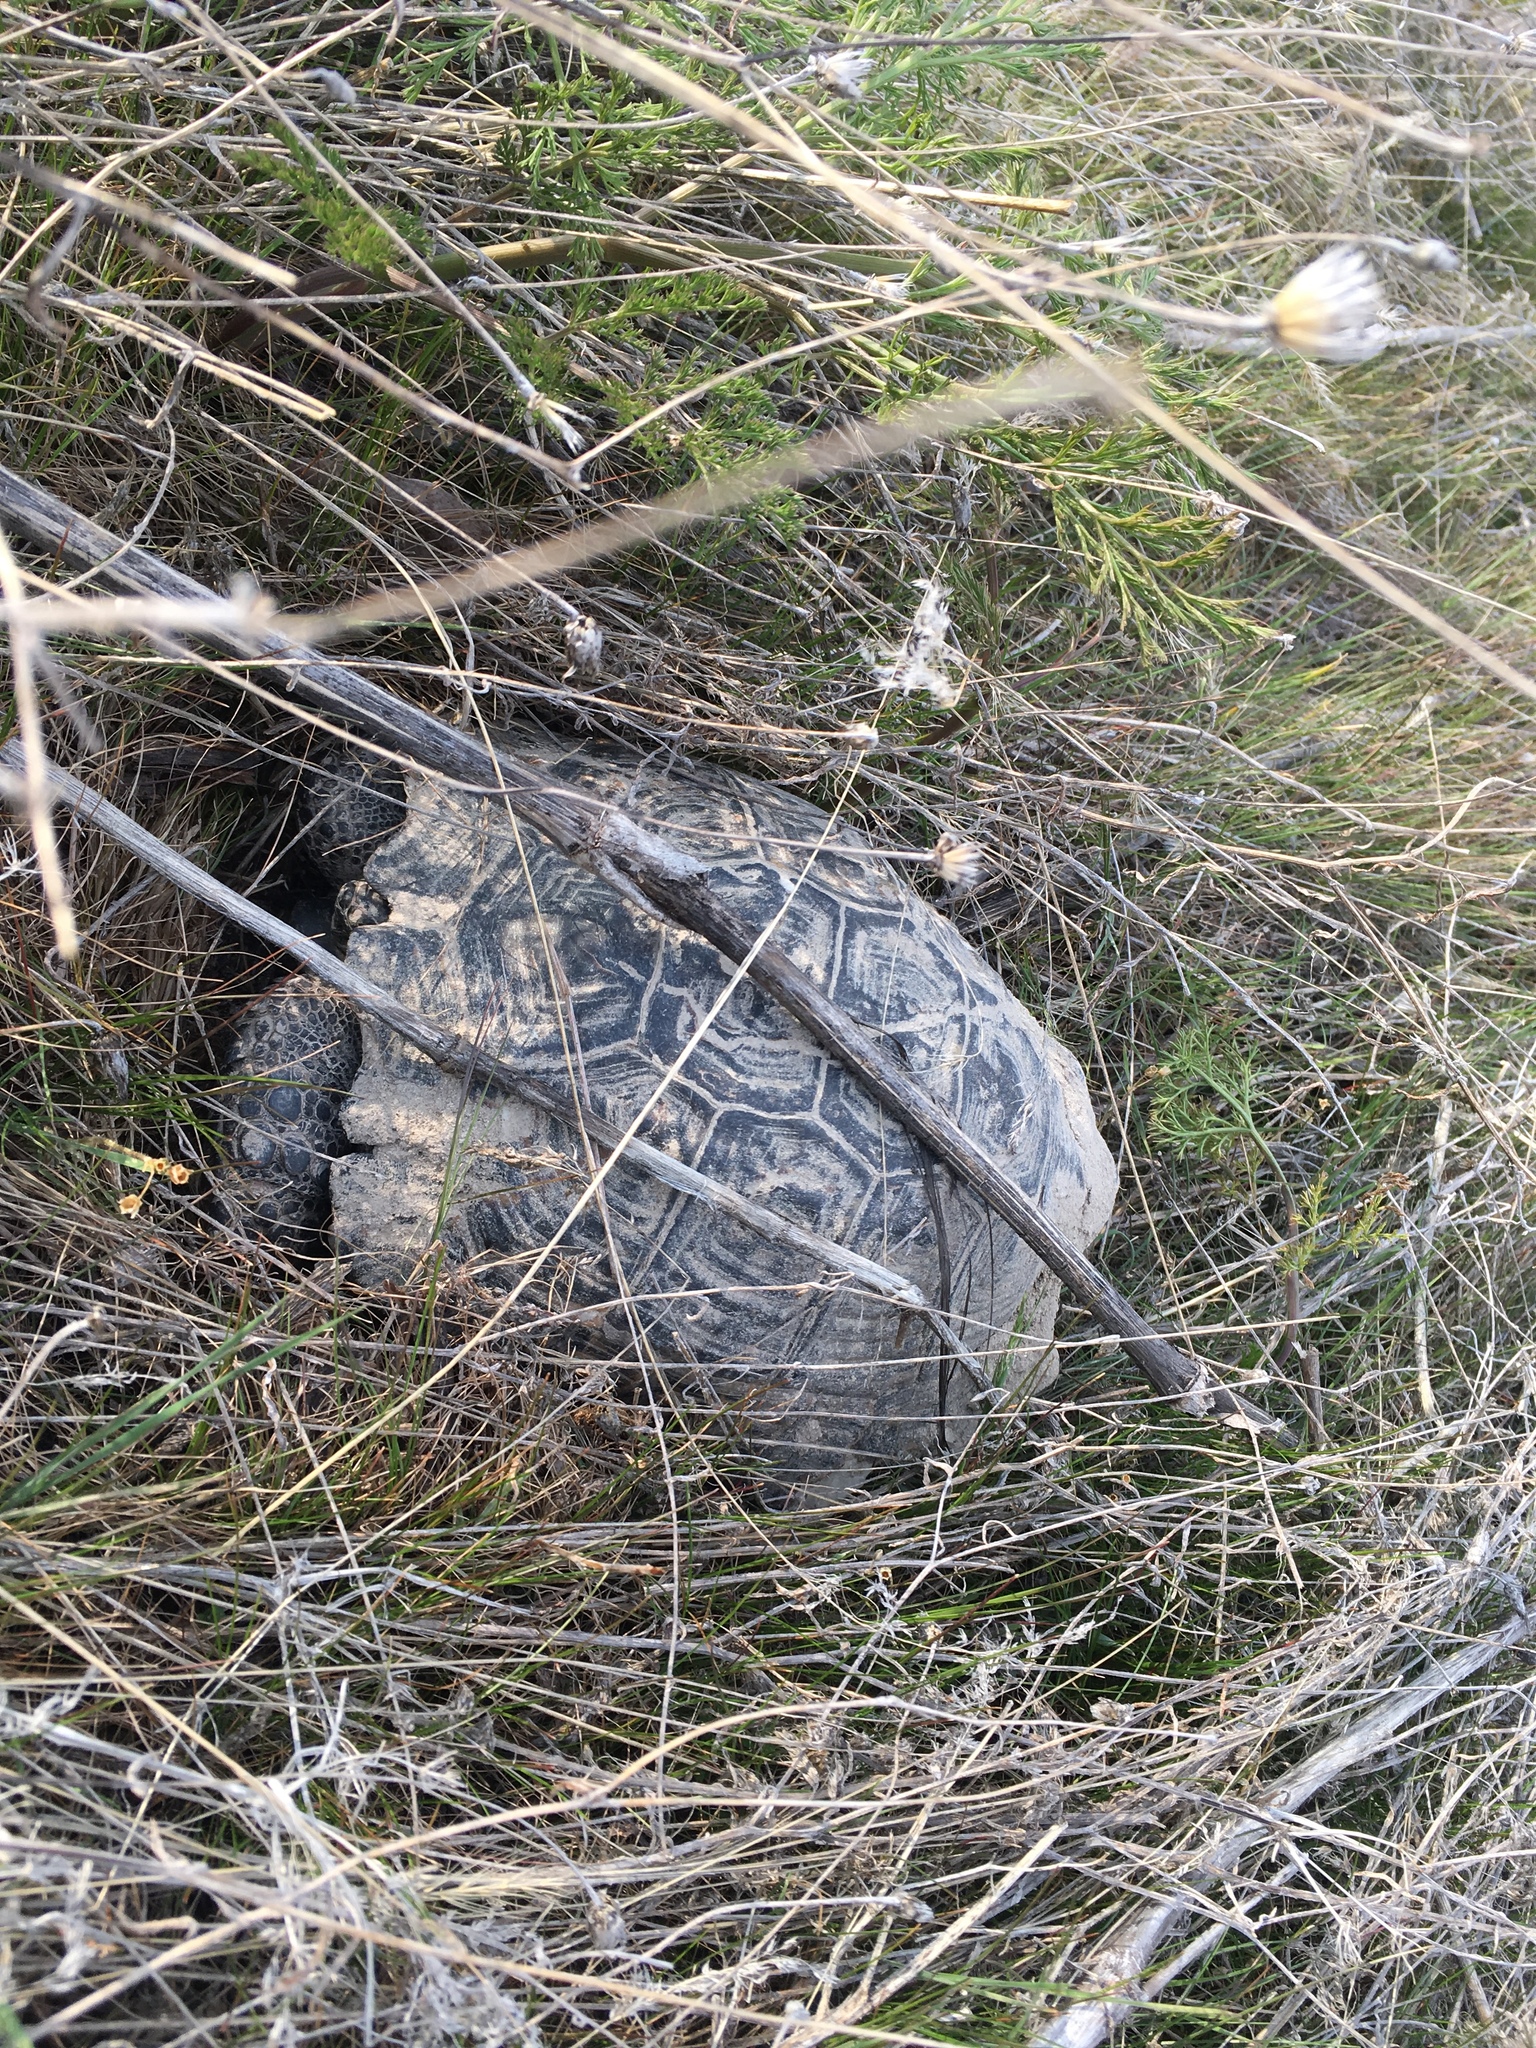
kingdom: Animalia
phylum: Chordata
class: Testudines
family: Testudinidae
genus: Testudo
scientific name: Testudo graeca
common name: Common tortoise
